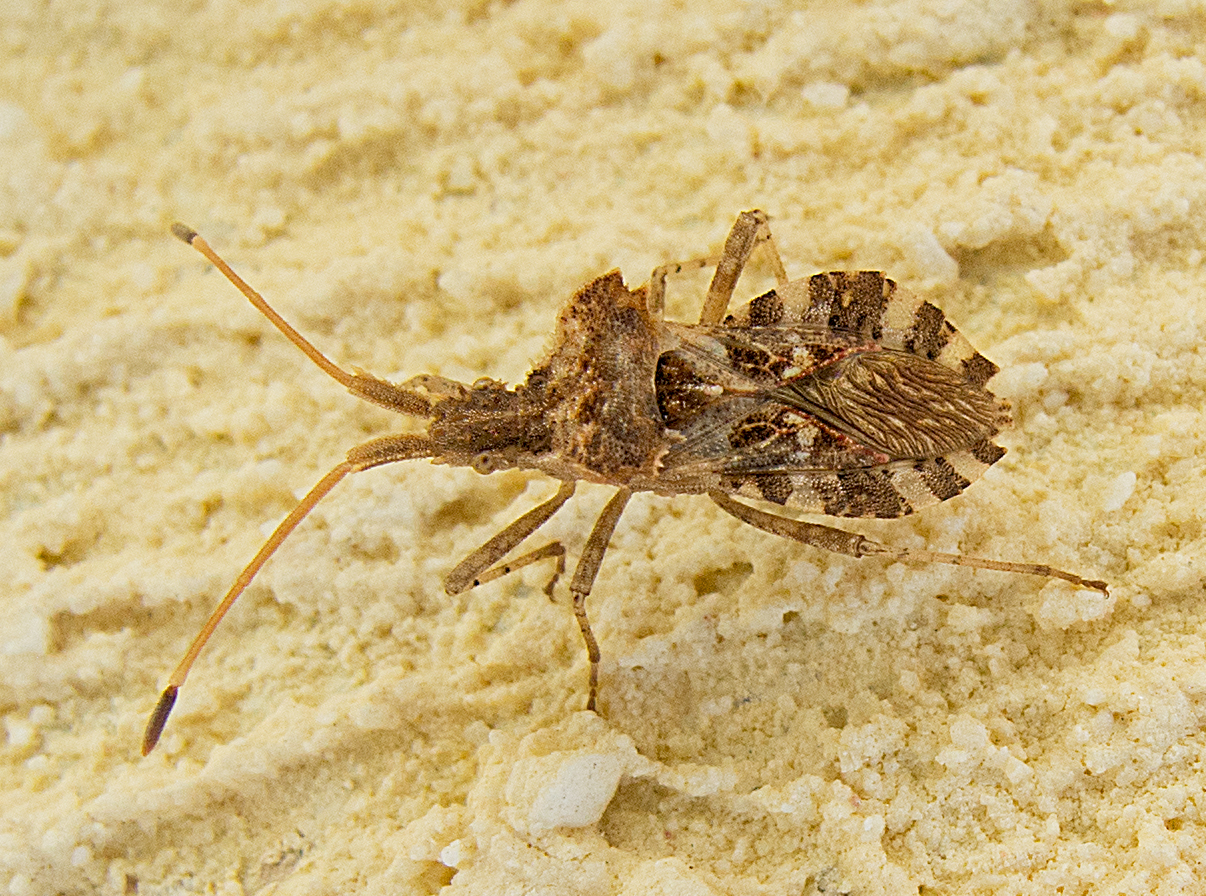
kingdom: Animalia
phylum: Arthropoda
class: Insecta
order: Hemiptera
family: Coreidae
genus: Centrocoris
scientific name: Centrocoris variegatus
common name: Leaf-footed bug
